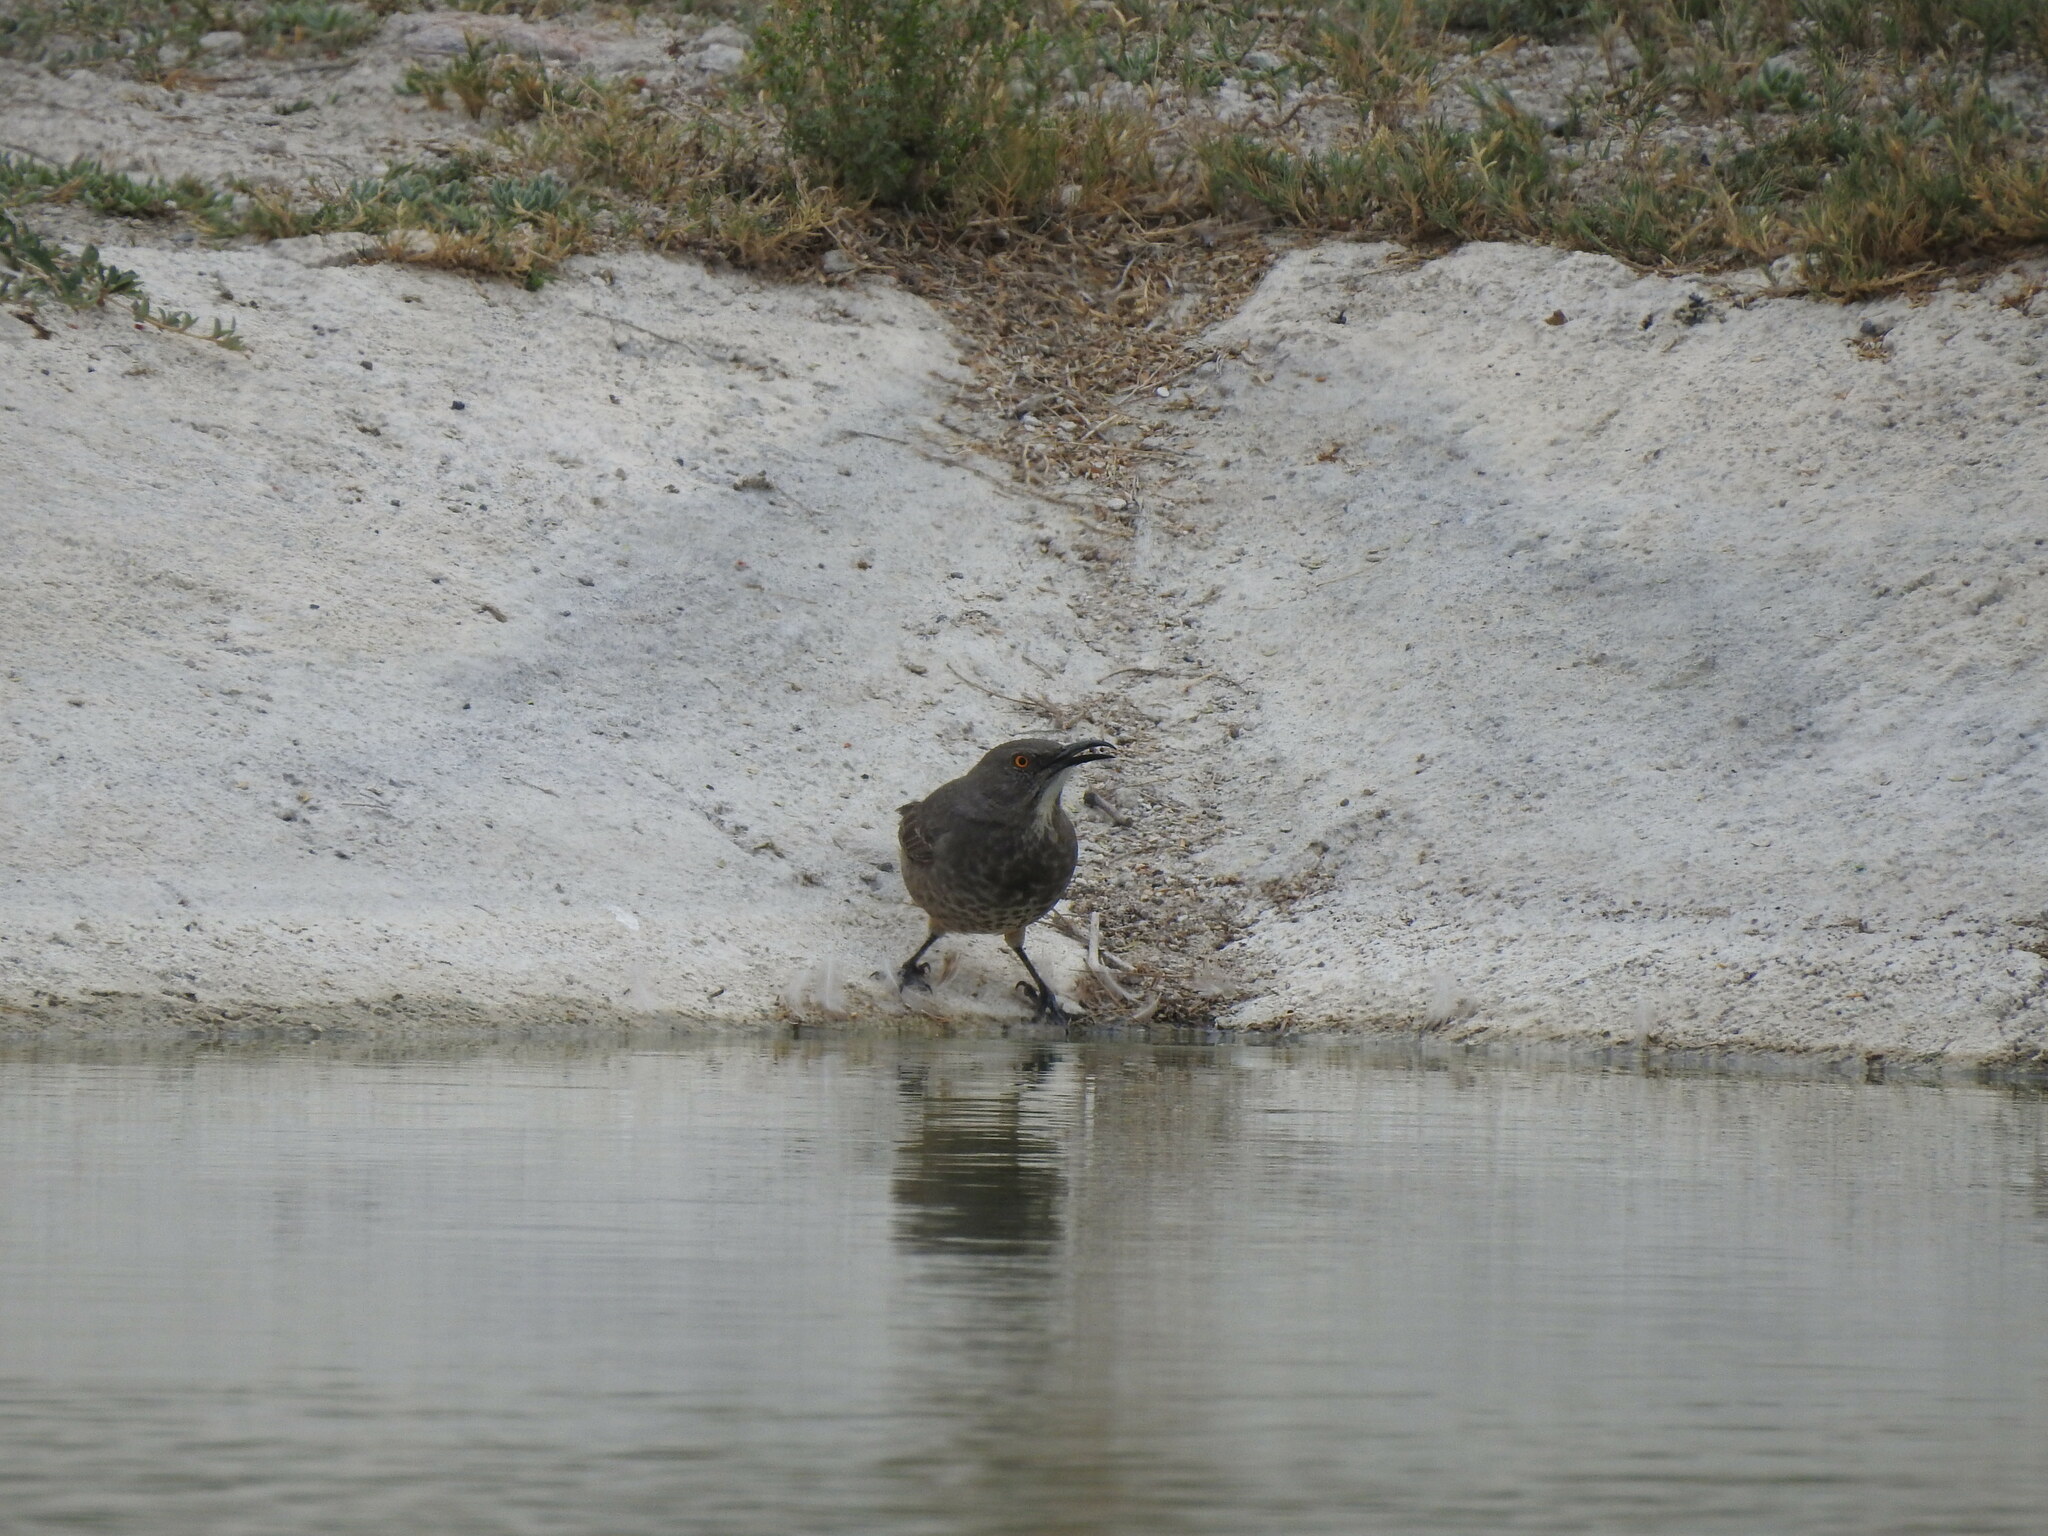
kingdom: Animalia
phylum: Chordata
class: Aves
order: Passeriformes
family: Mimidae
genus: Toxostoma
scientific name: Toxostoma curvirostre
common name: Curve-billed thrasher
